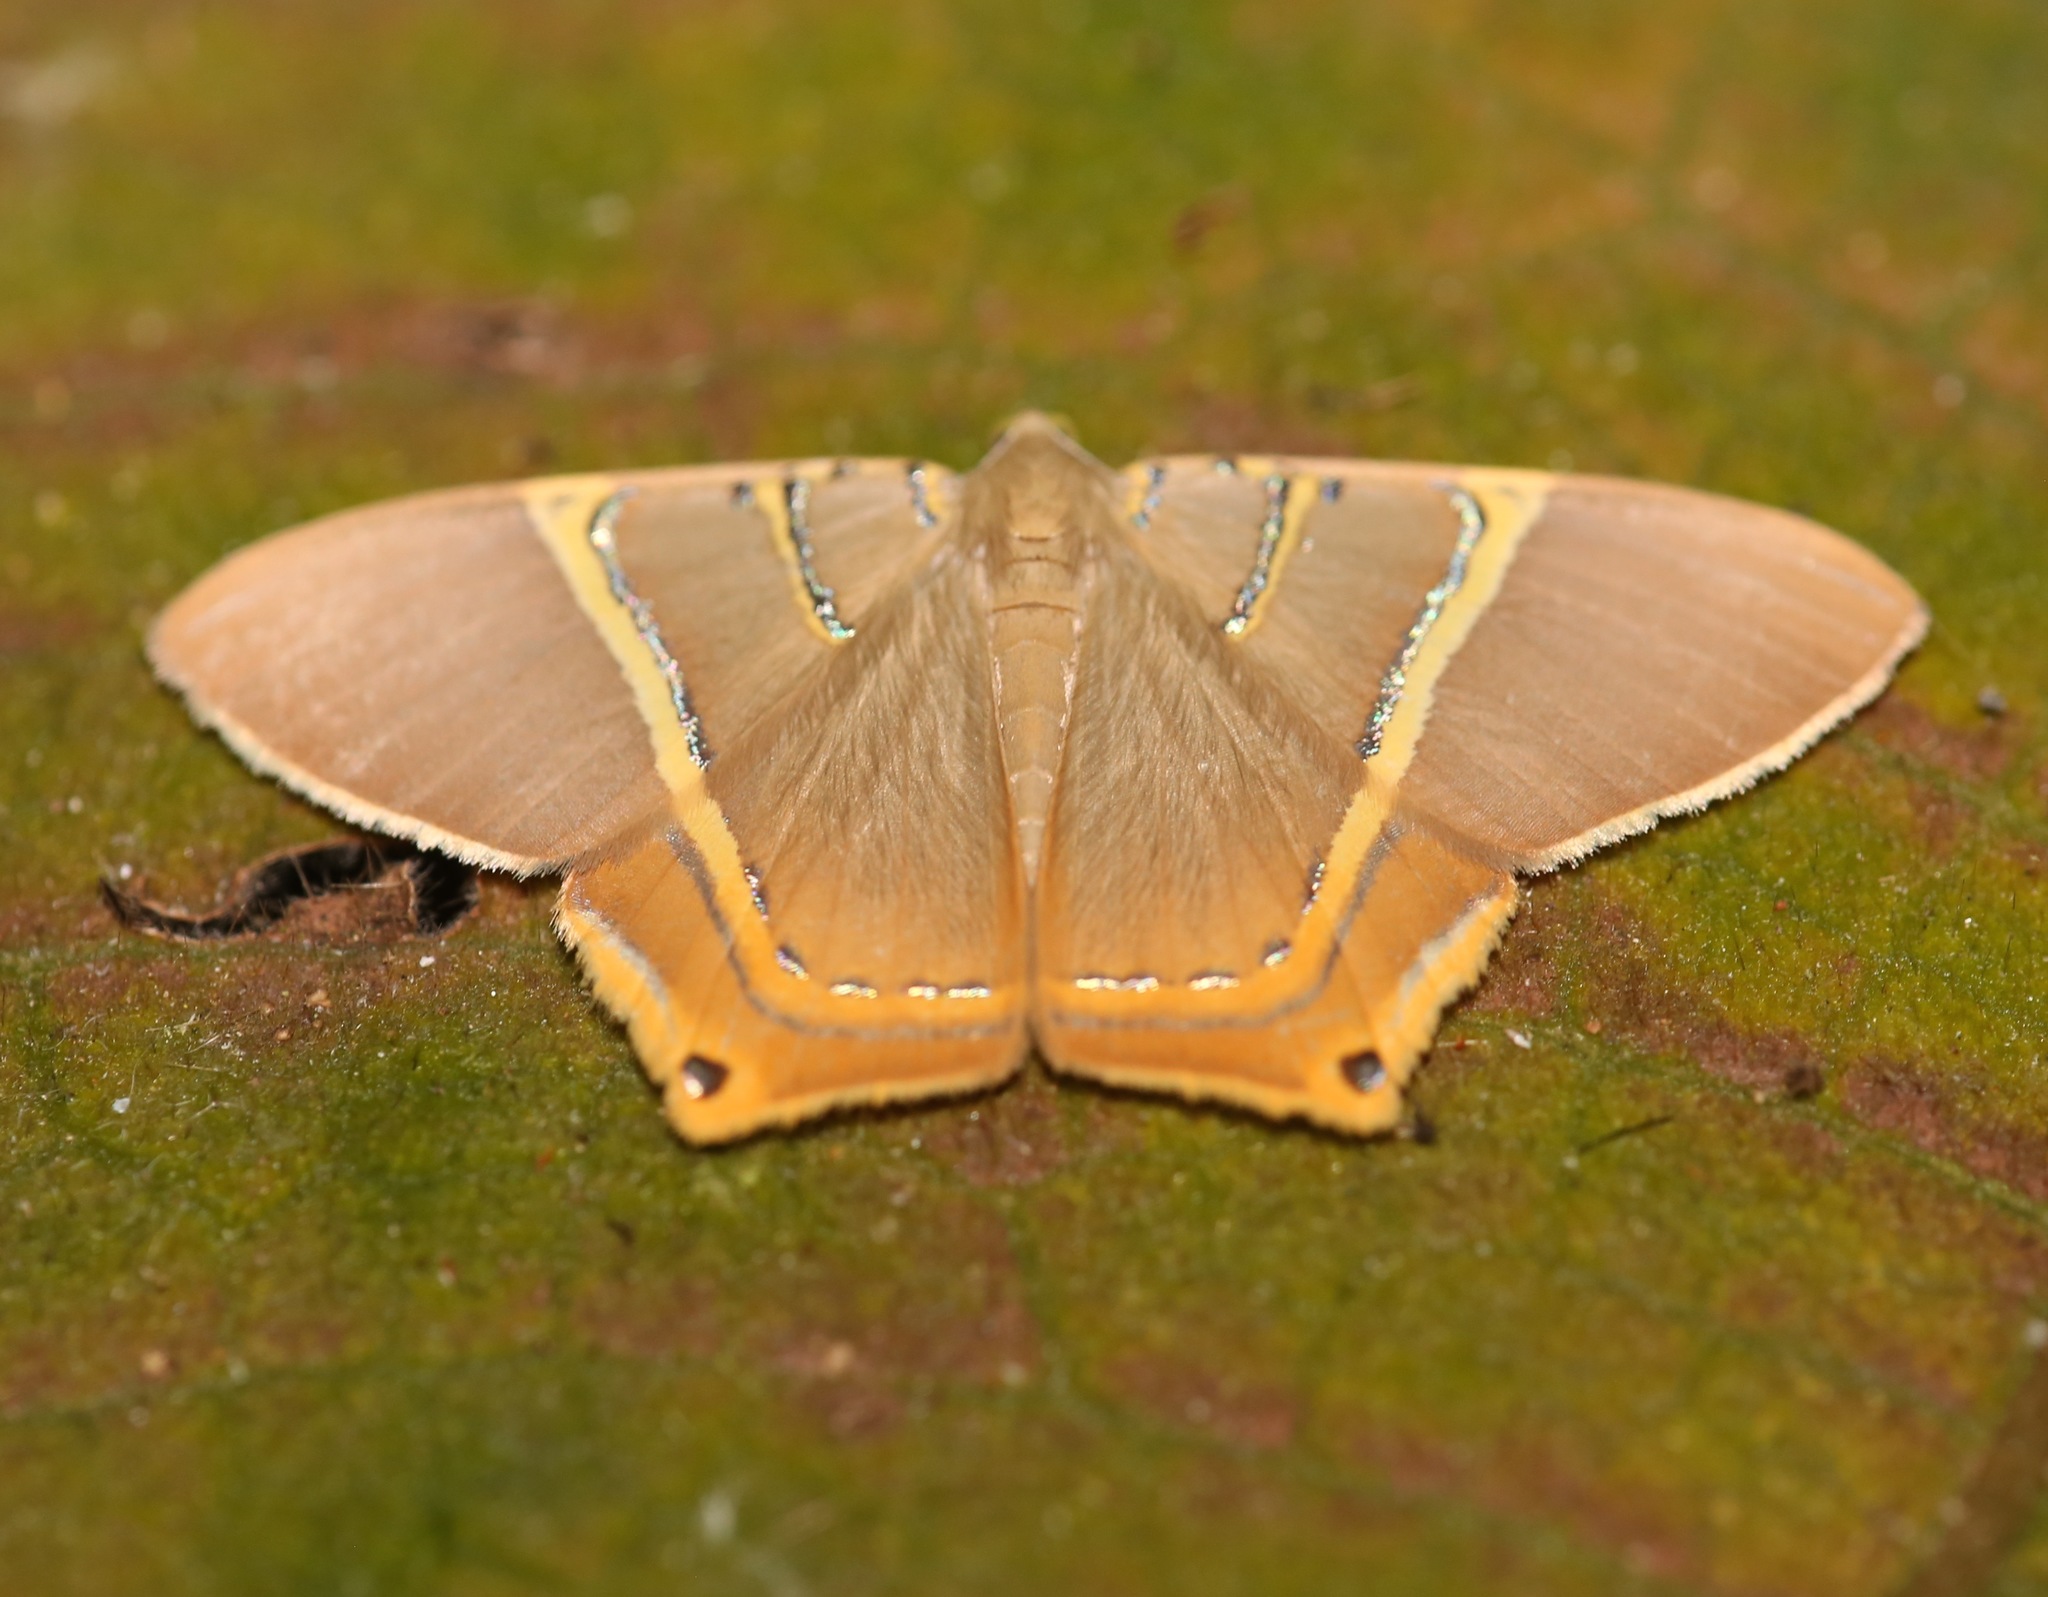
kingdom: Animalia
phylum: Arthropoda
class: Insecta
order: Lepidoptera
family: Geometridae
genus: Phrygionis
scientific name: Phrygionis polita
